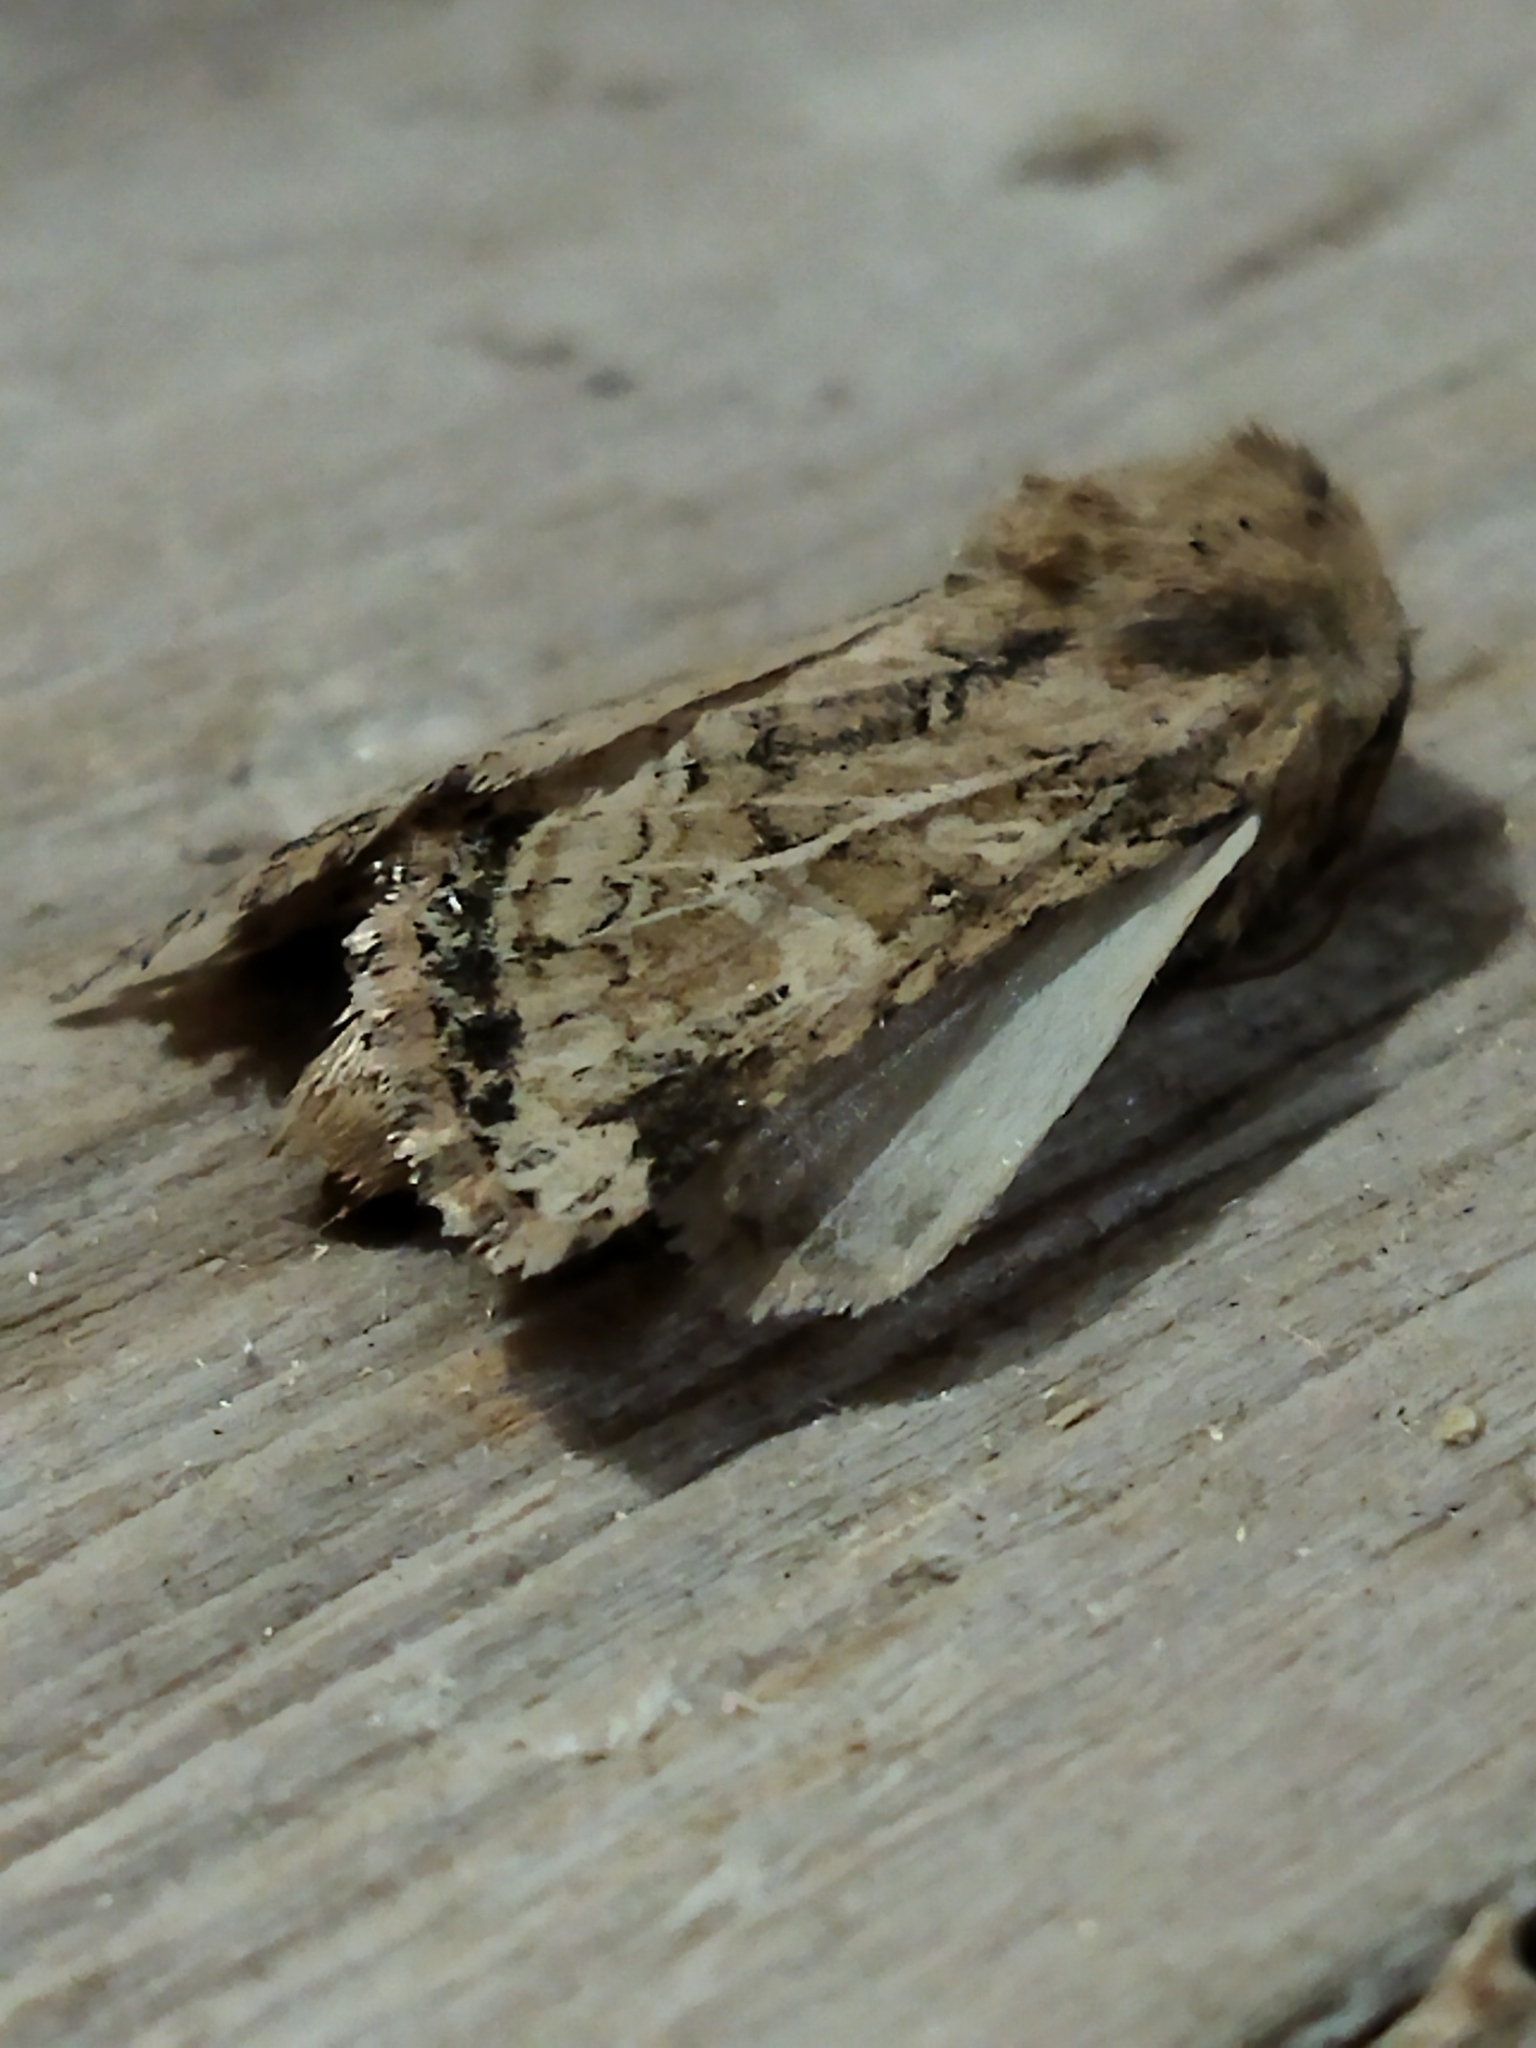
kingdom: Animalia
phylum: Arthropoda
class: Insecta
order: Lepidoptera
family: Noctuidae
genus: Luperina
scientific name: Luperina dumerilii
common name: Dumeril's rustic
